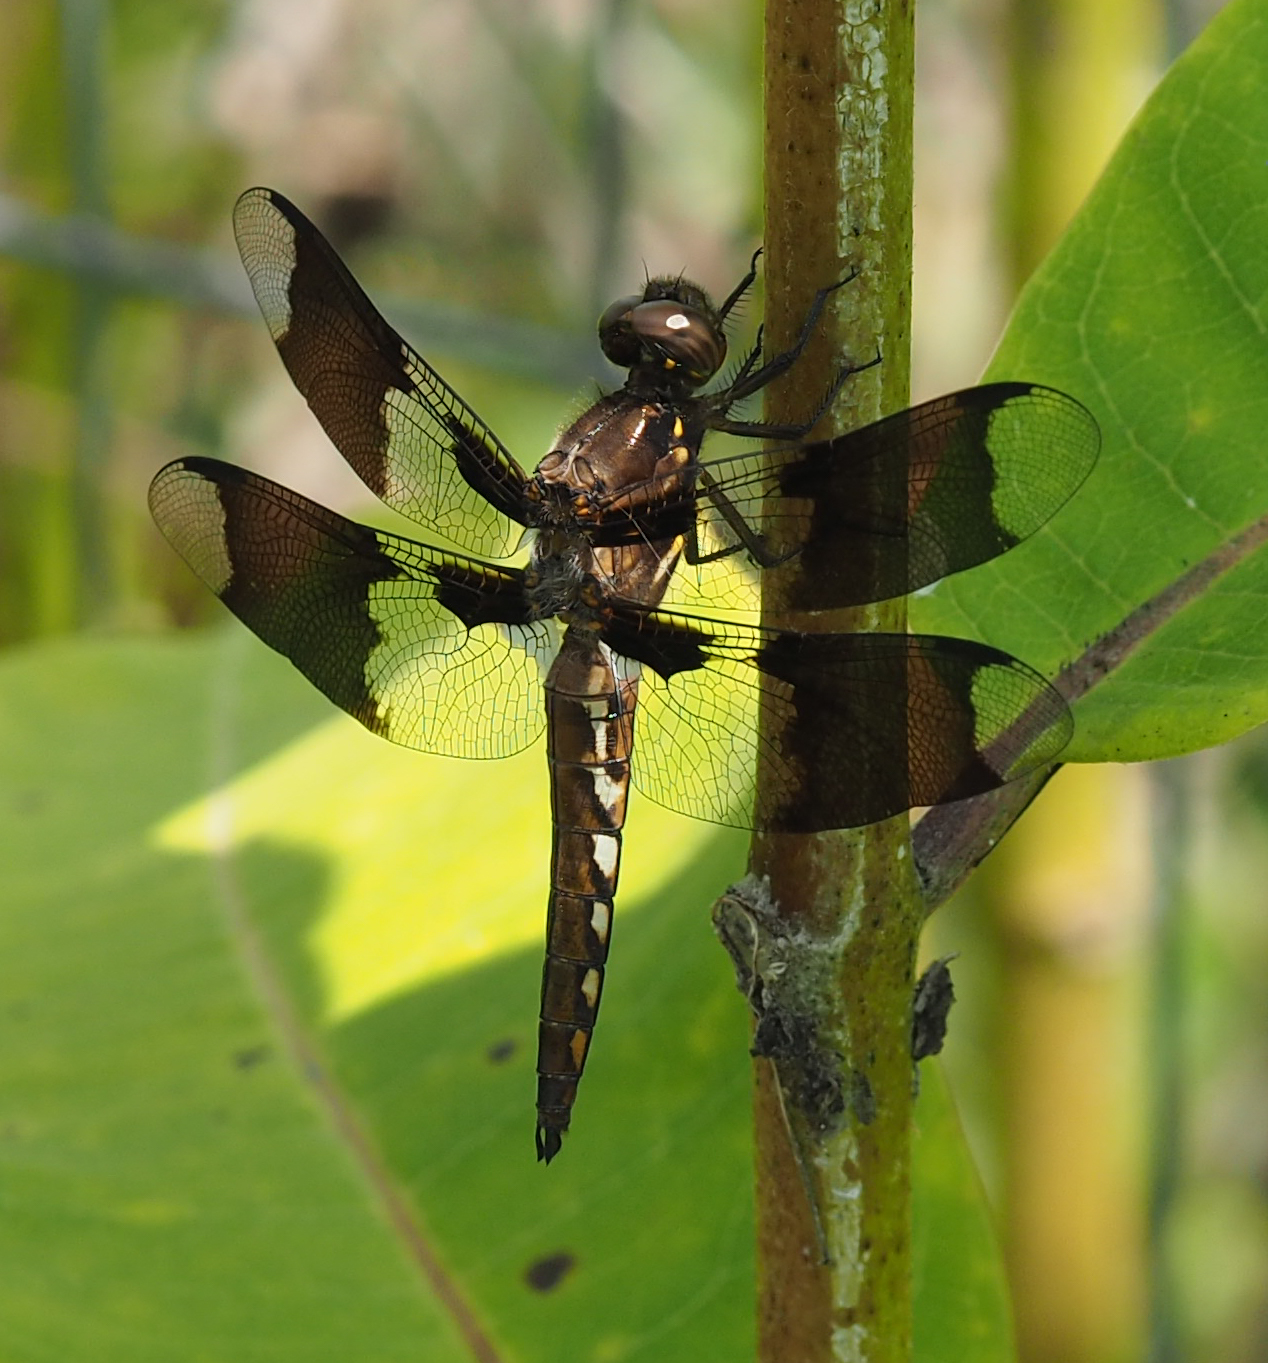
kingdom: Animalia
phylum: Arthropoda
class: Insecta
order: Odonata
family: Libellulidae
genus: Plathemis
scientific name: Plathemis lydia
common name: Common whitetail
